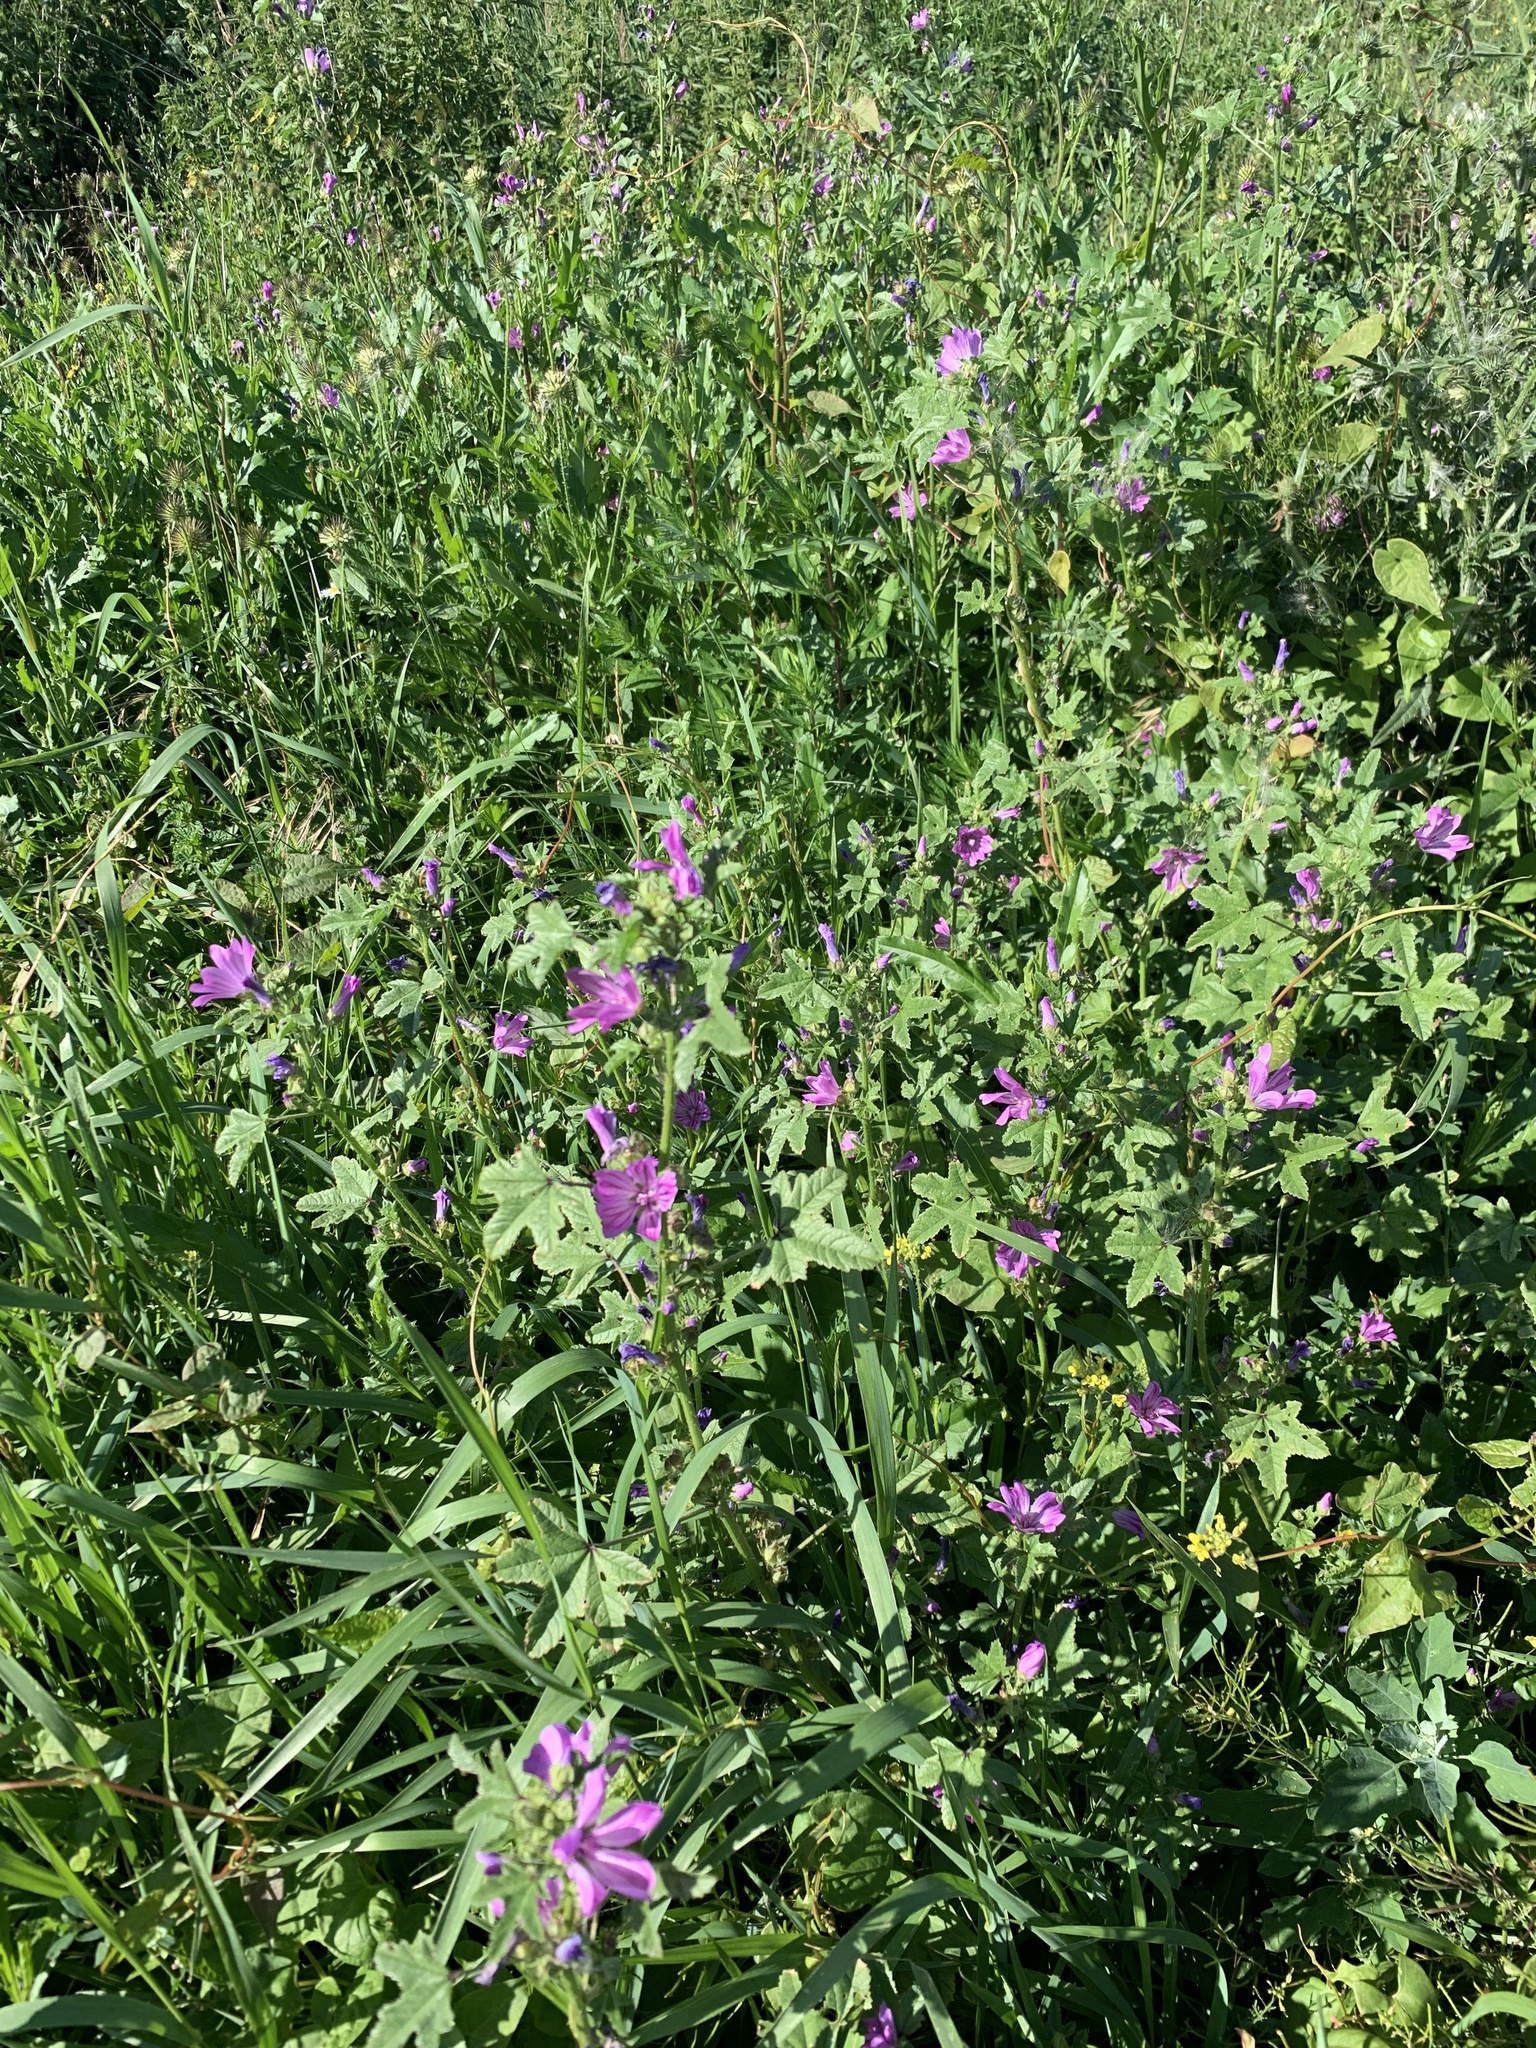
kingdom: Plantae
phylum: Tracheophyta
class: Magnoliopsida
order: Malvales
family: Malvaceae
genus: Malva
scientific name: Malva sylvestris
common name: Common mallow
